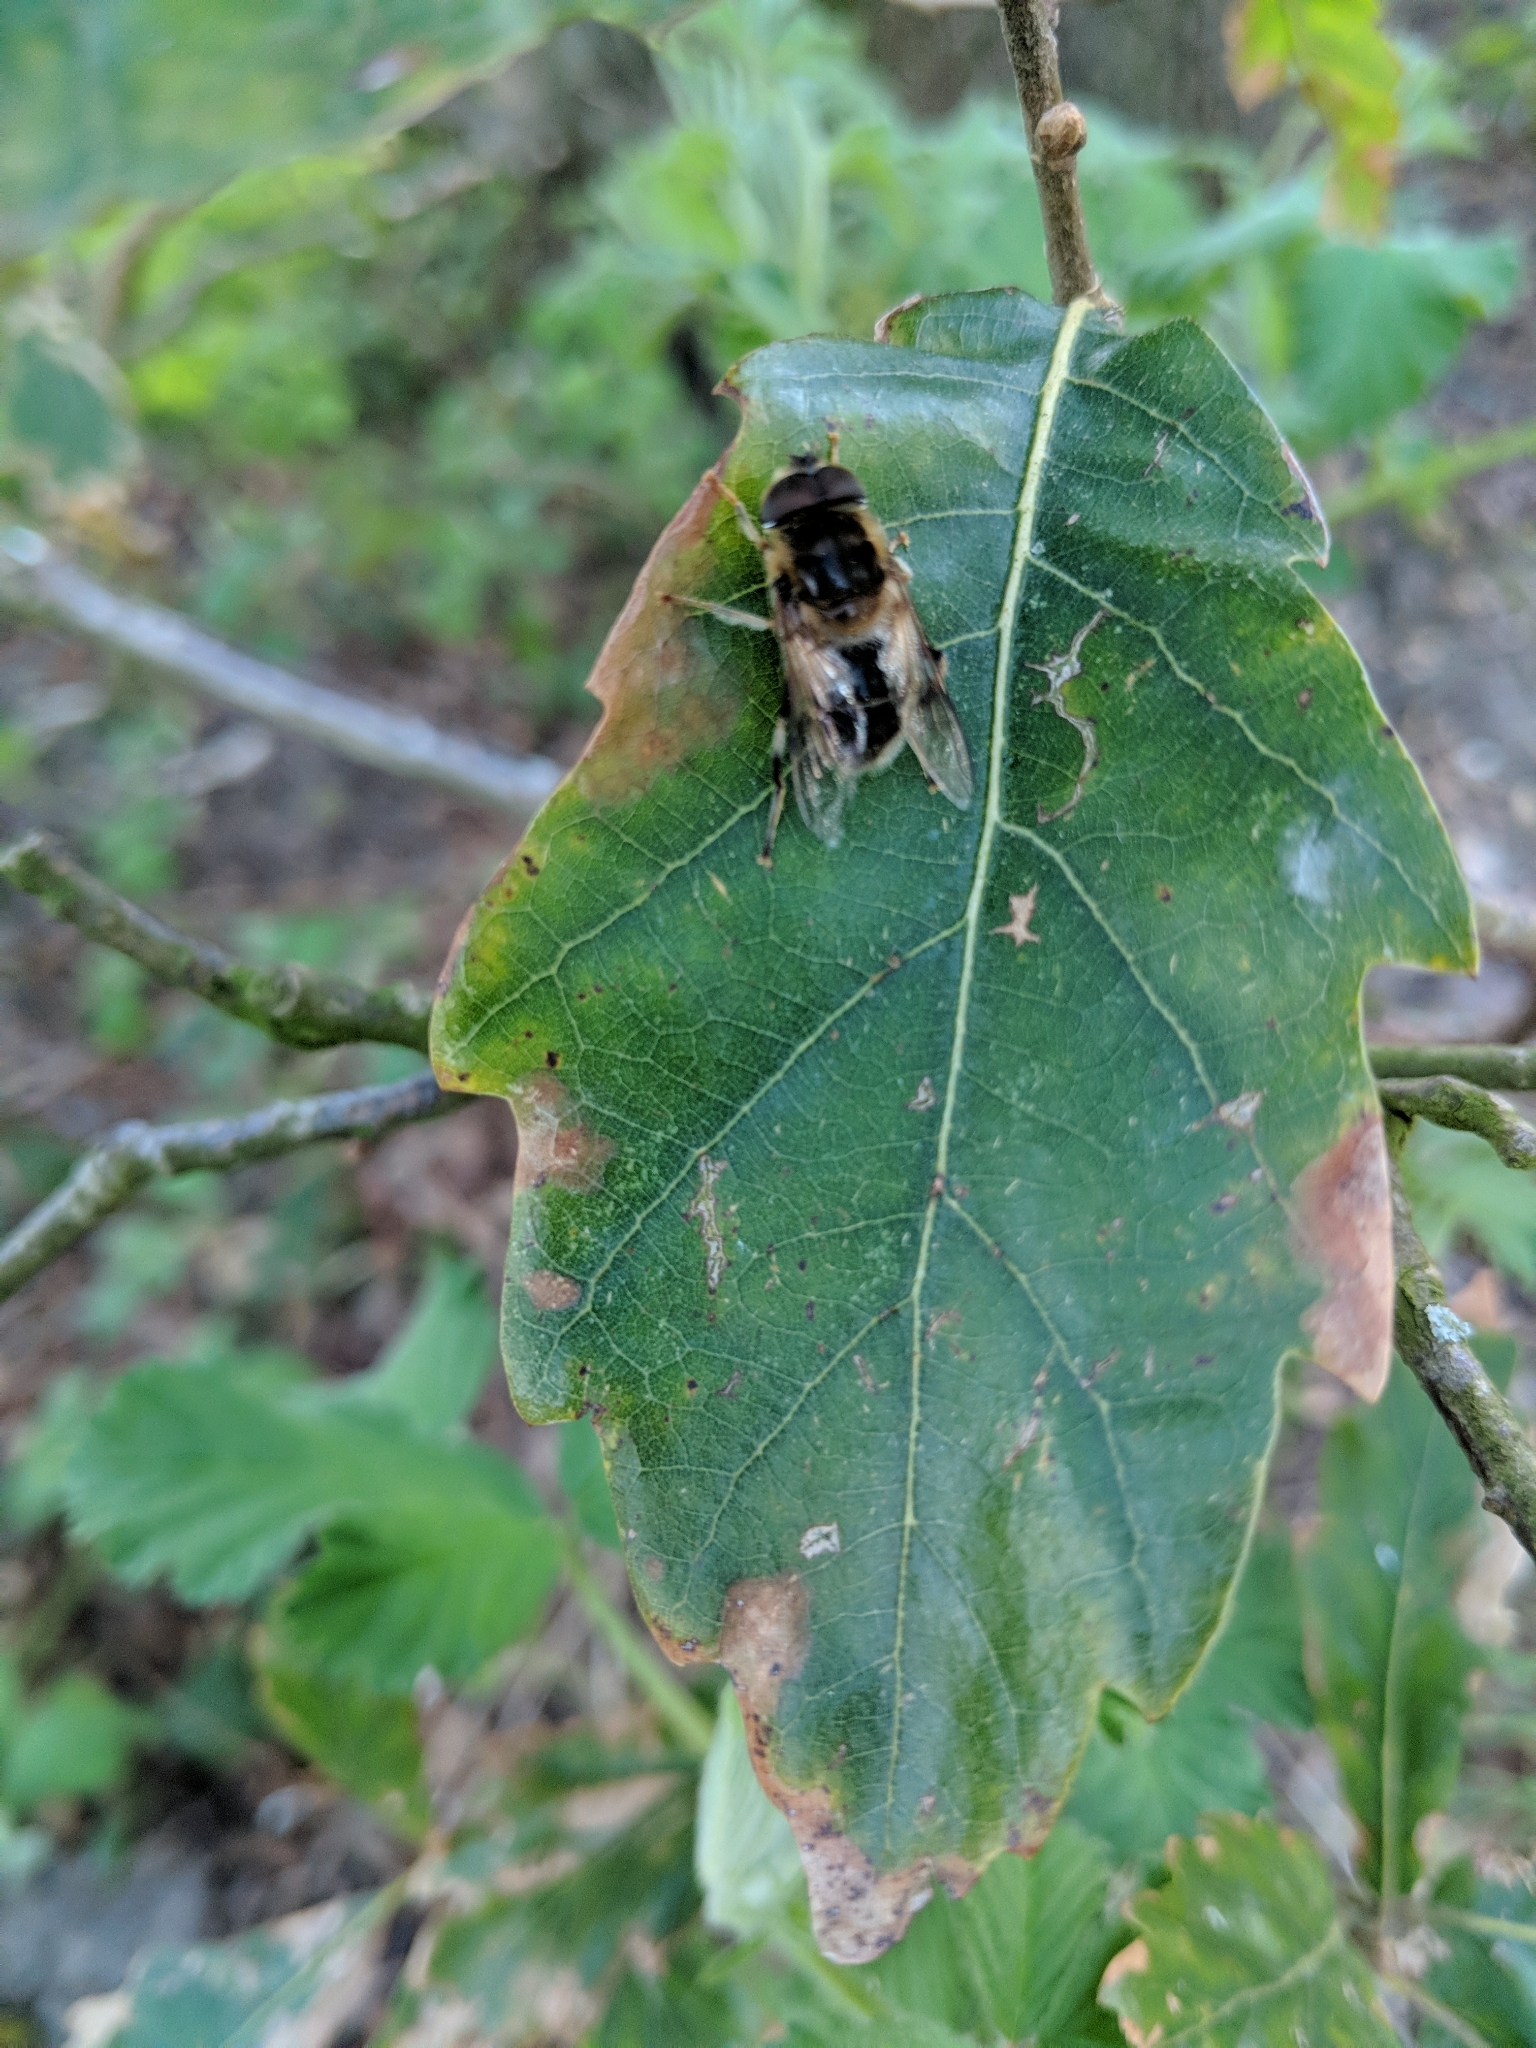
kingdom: Animalia
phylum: Arthropoda
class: Insecta
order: Diptera
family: Syrphidae
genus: Eristalis
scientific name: Eristalis pertinax
